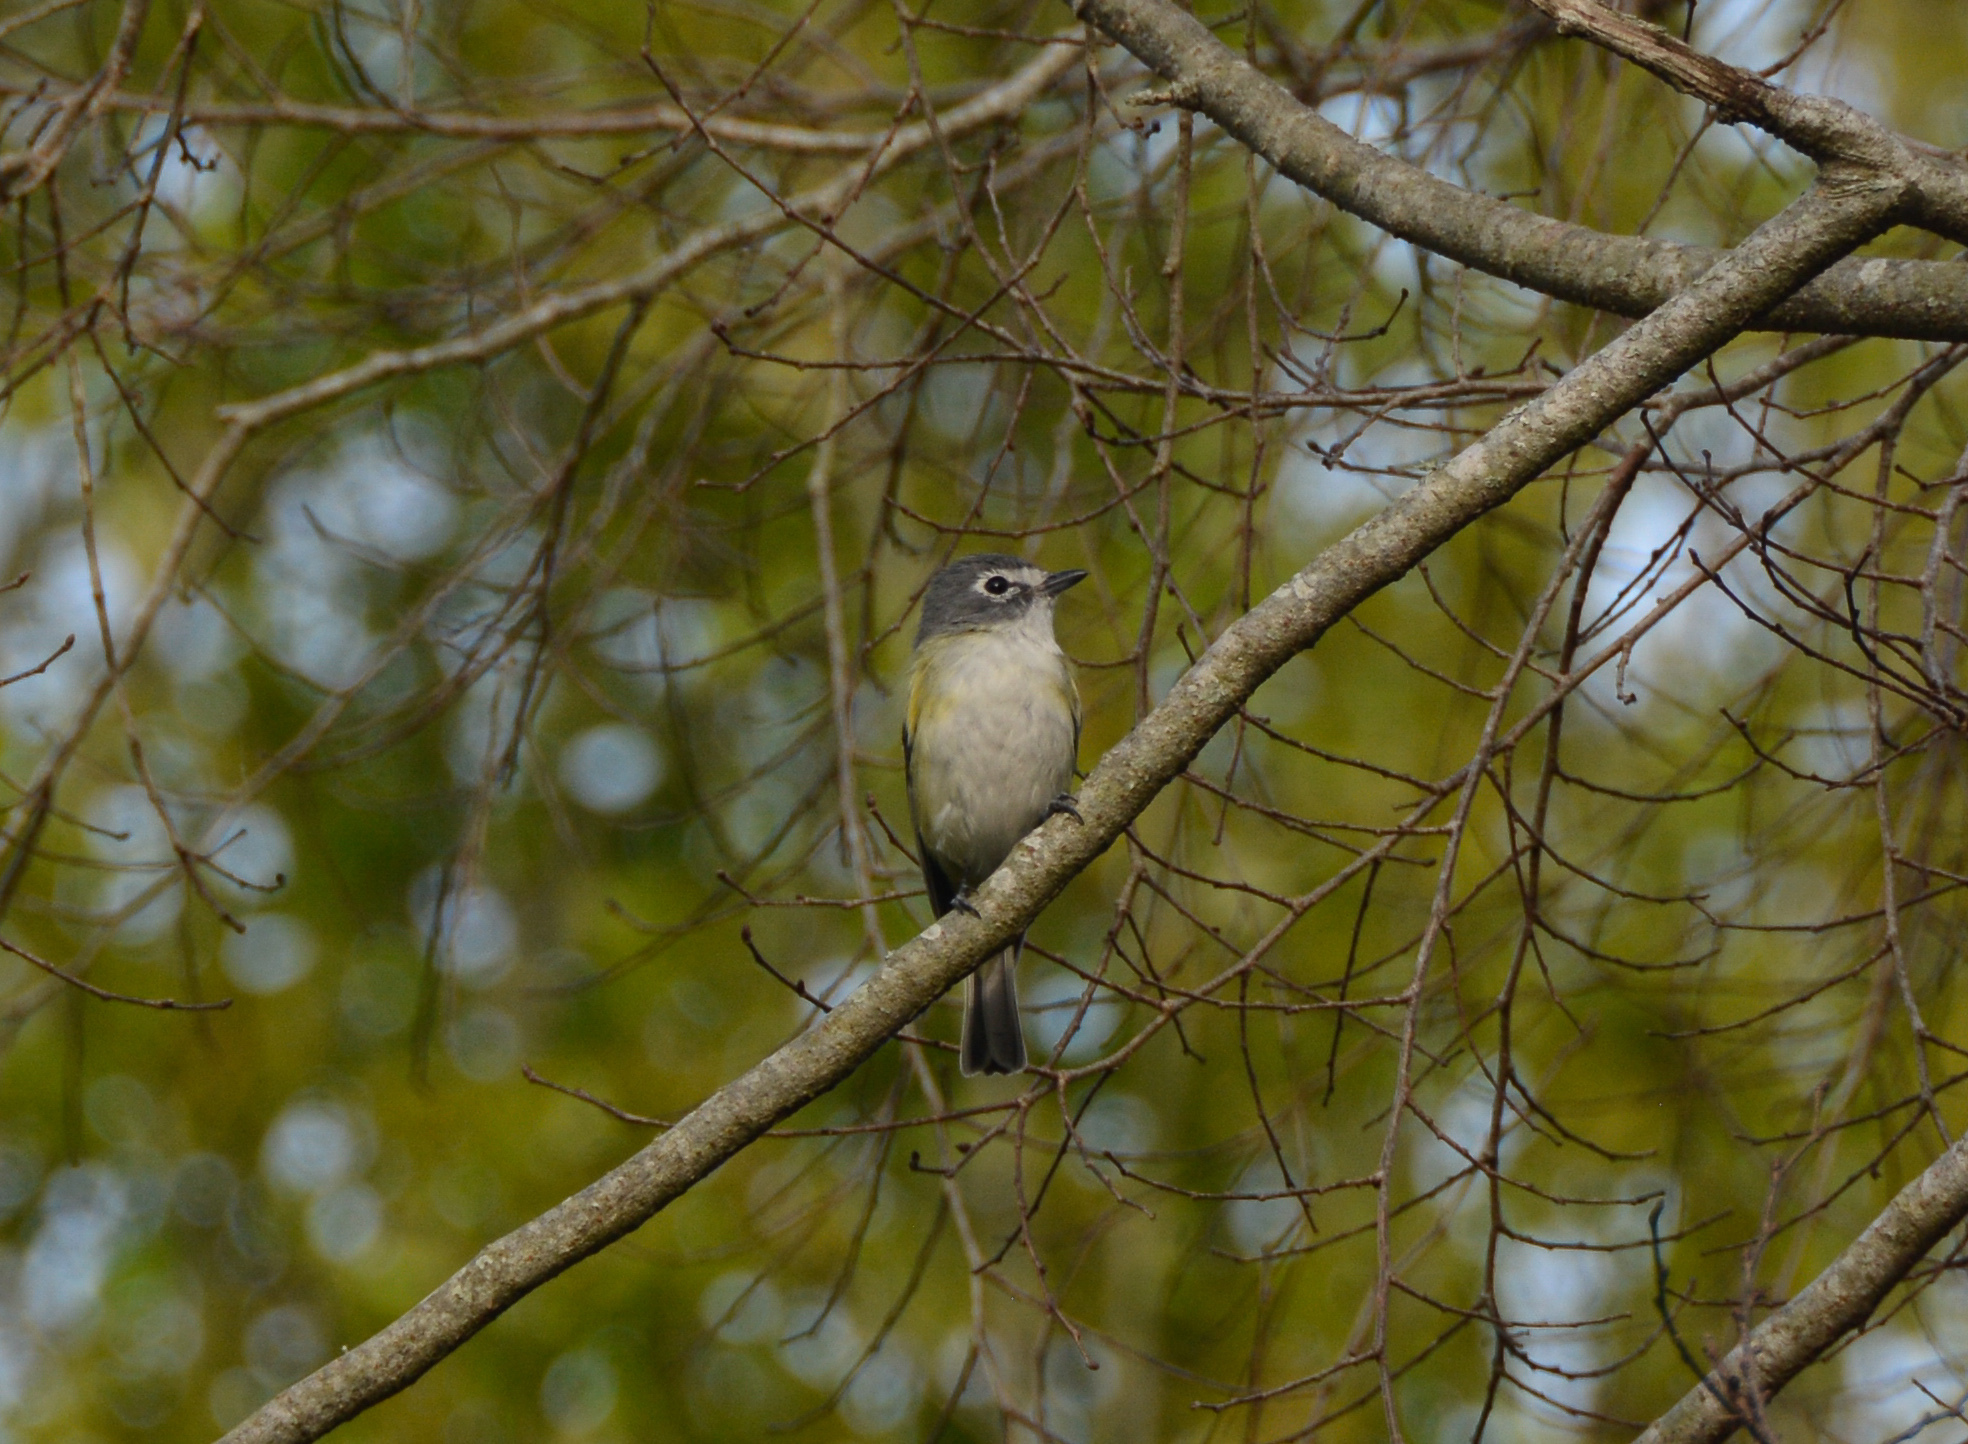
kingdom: Animalia
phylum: Chordata
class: Aves
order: Passeriformes
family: Vireonidae
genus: Vireo
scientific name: Vireo solitarius
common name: Blue-headed vireo
